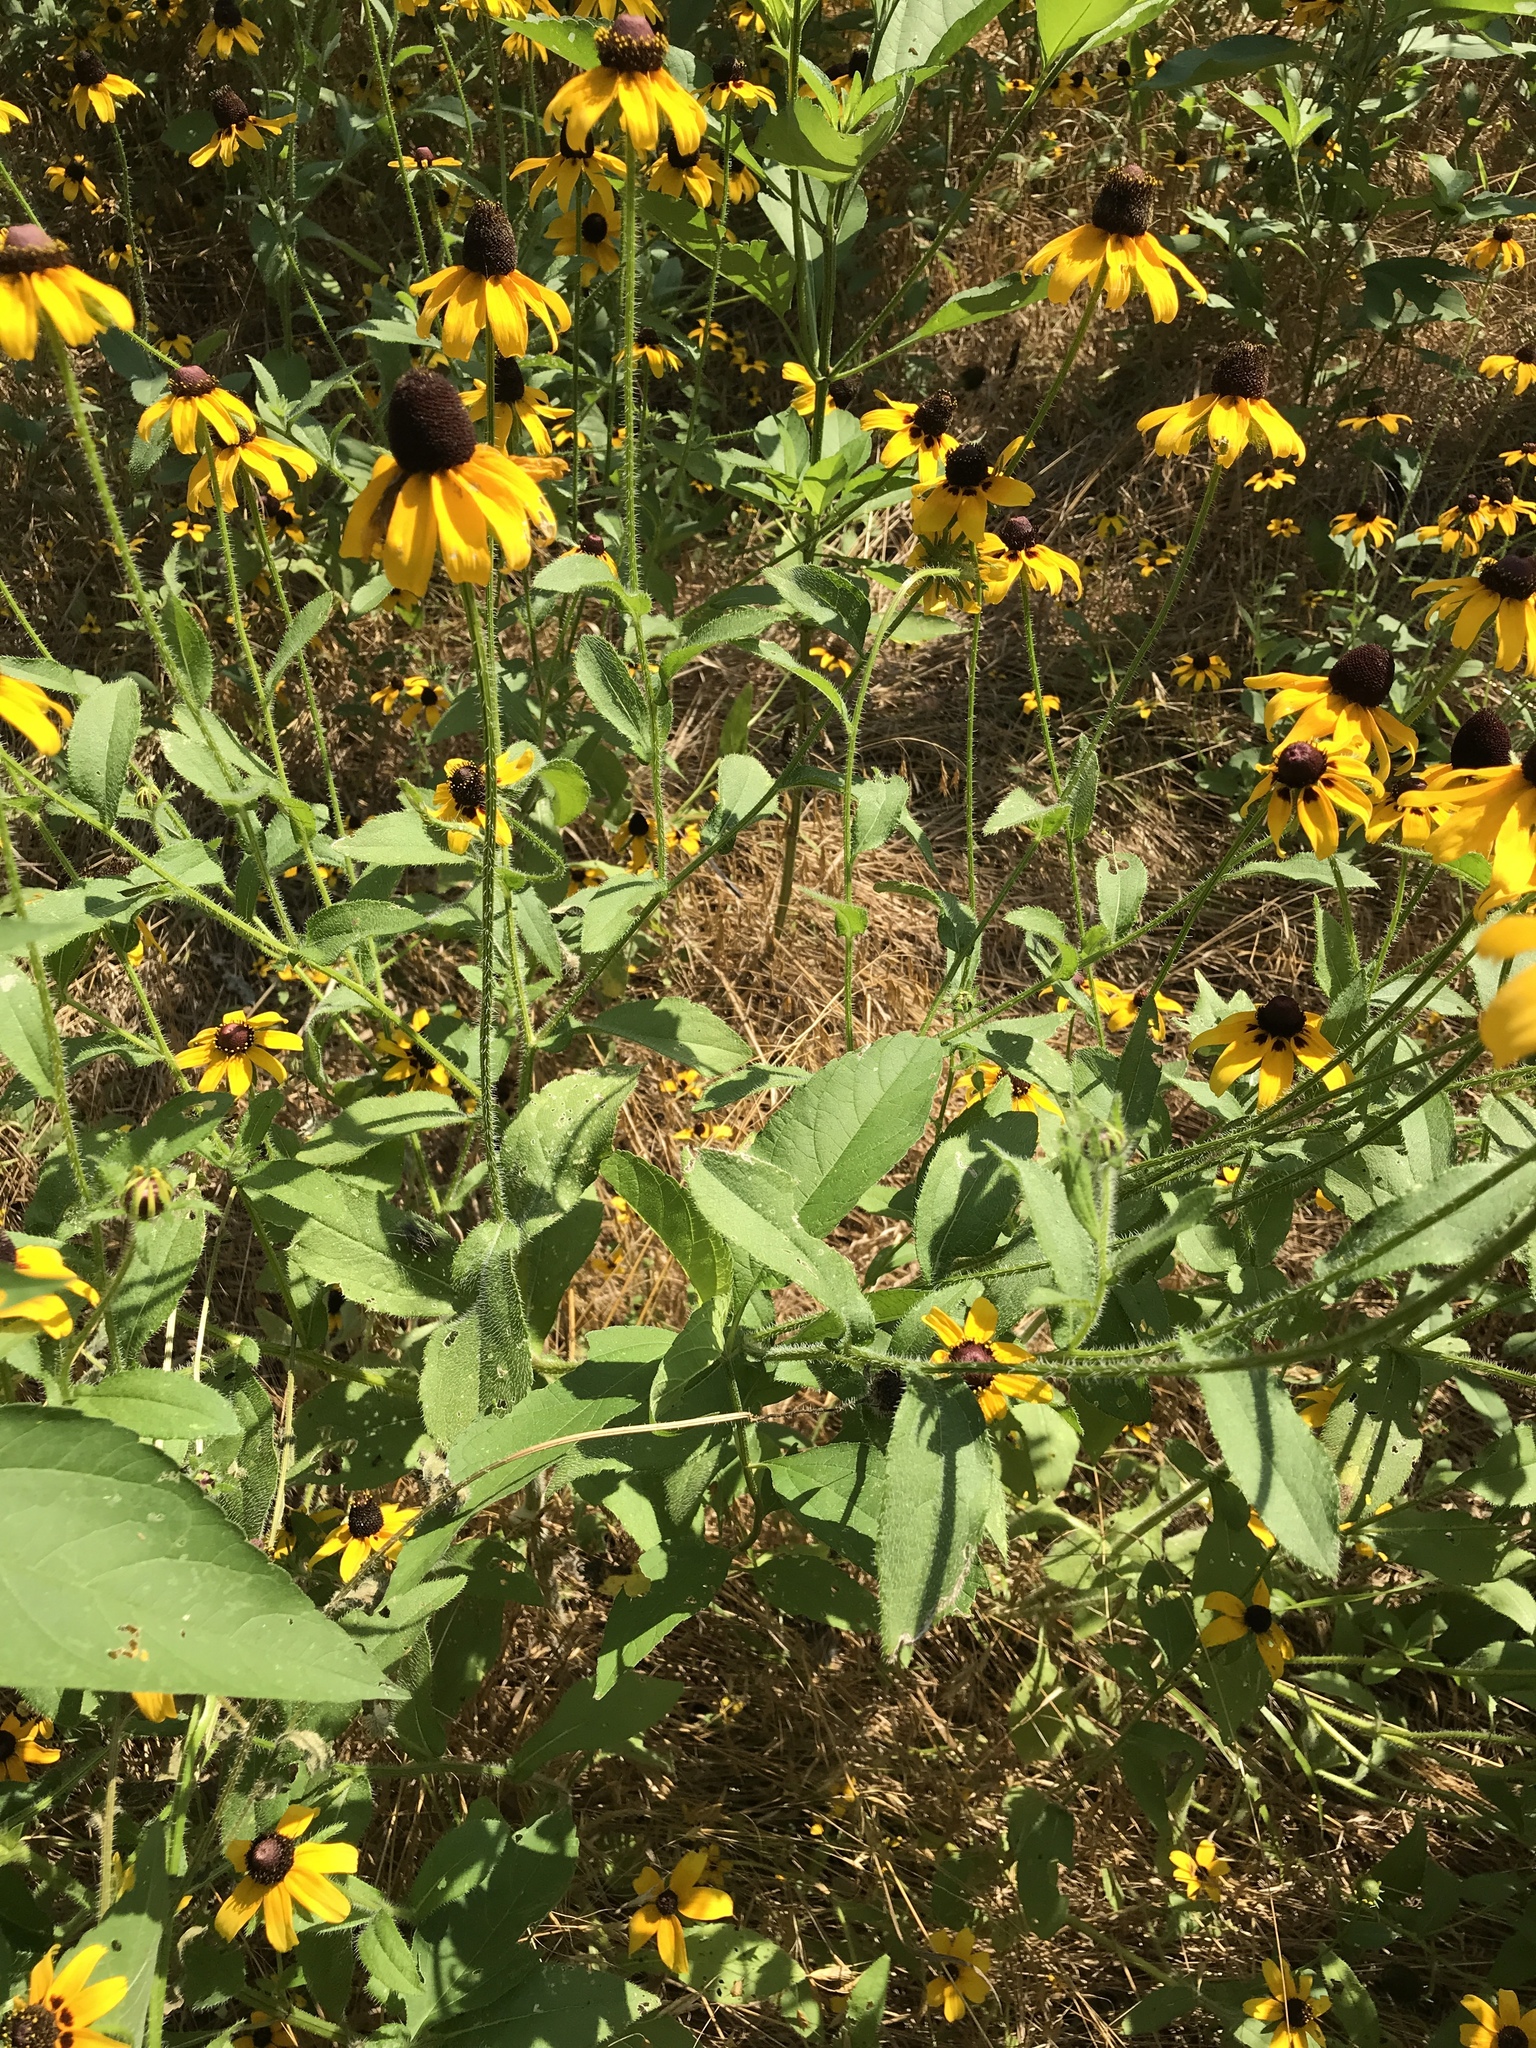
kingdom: Plantae
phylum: Tracheophyta
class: Magnoliopsida
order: Asterales
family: Asteraceae
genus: Rudbeckia
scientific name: Rudbeckia hirta
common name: Black-eyed-susan
